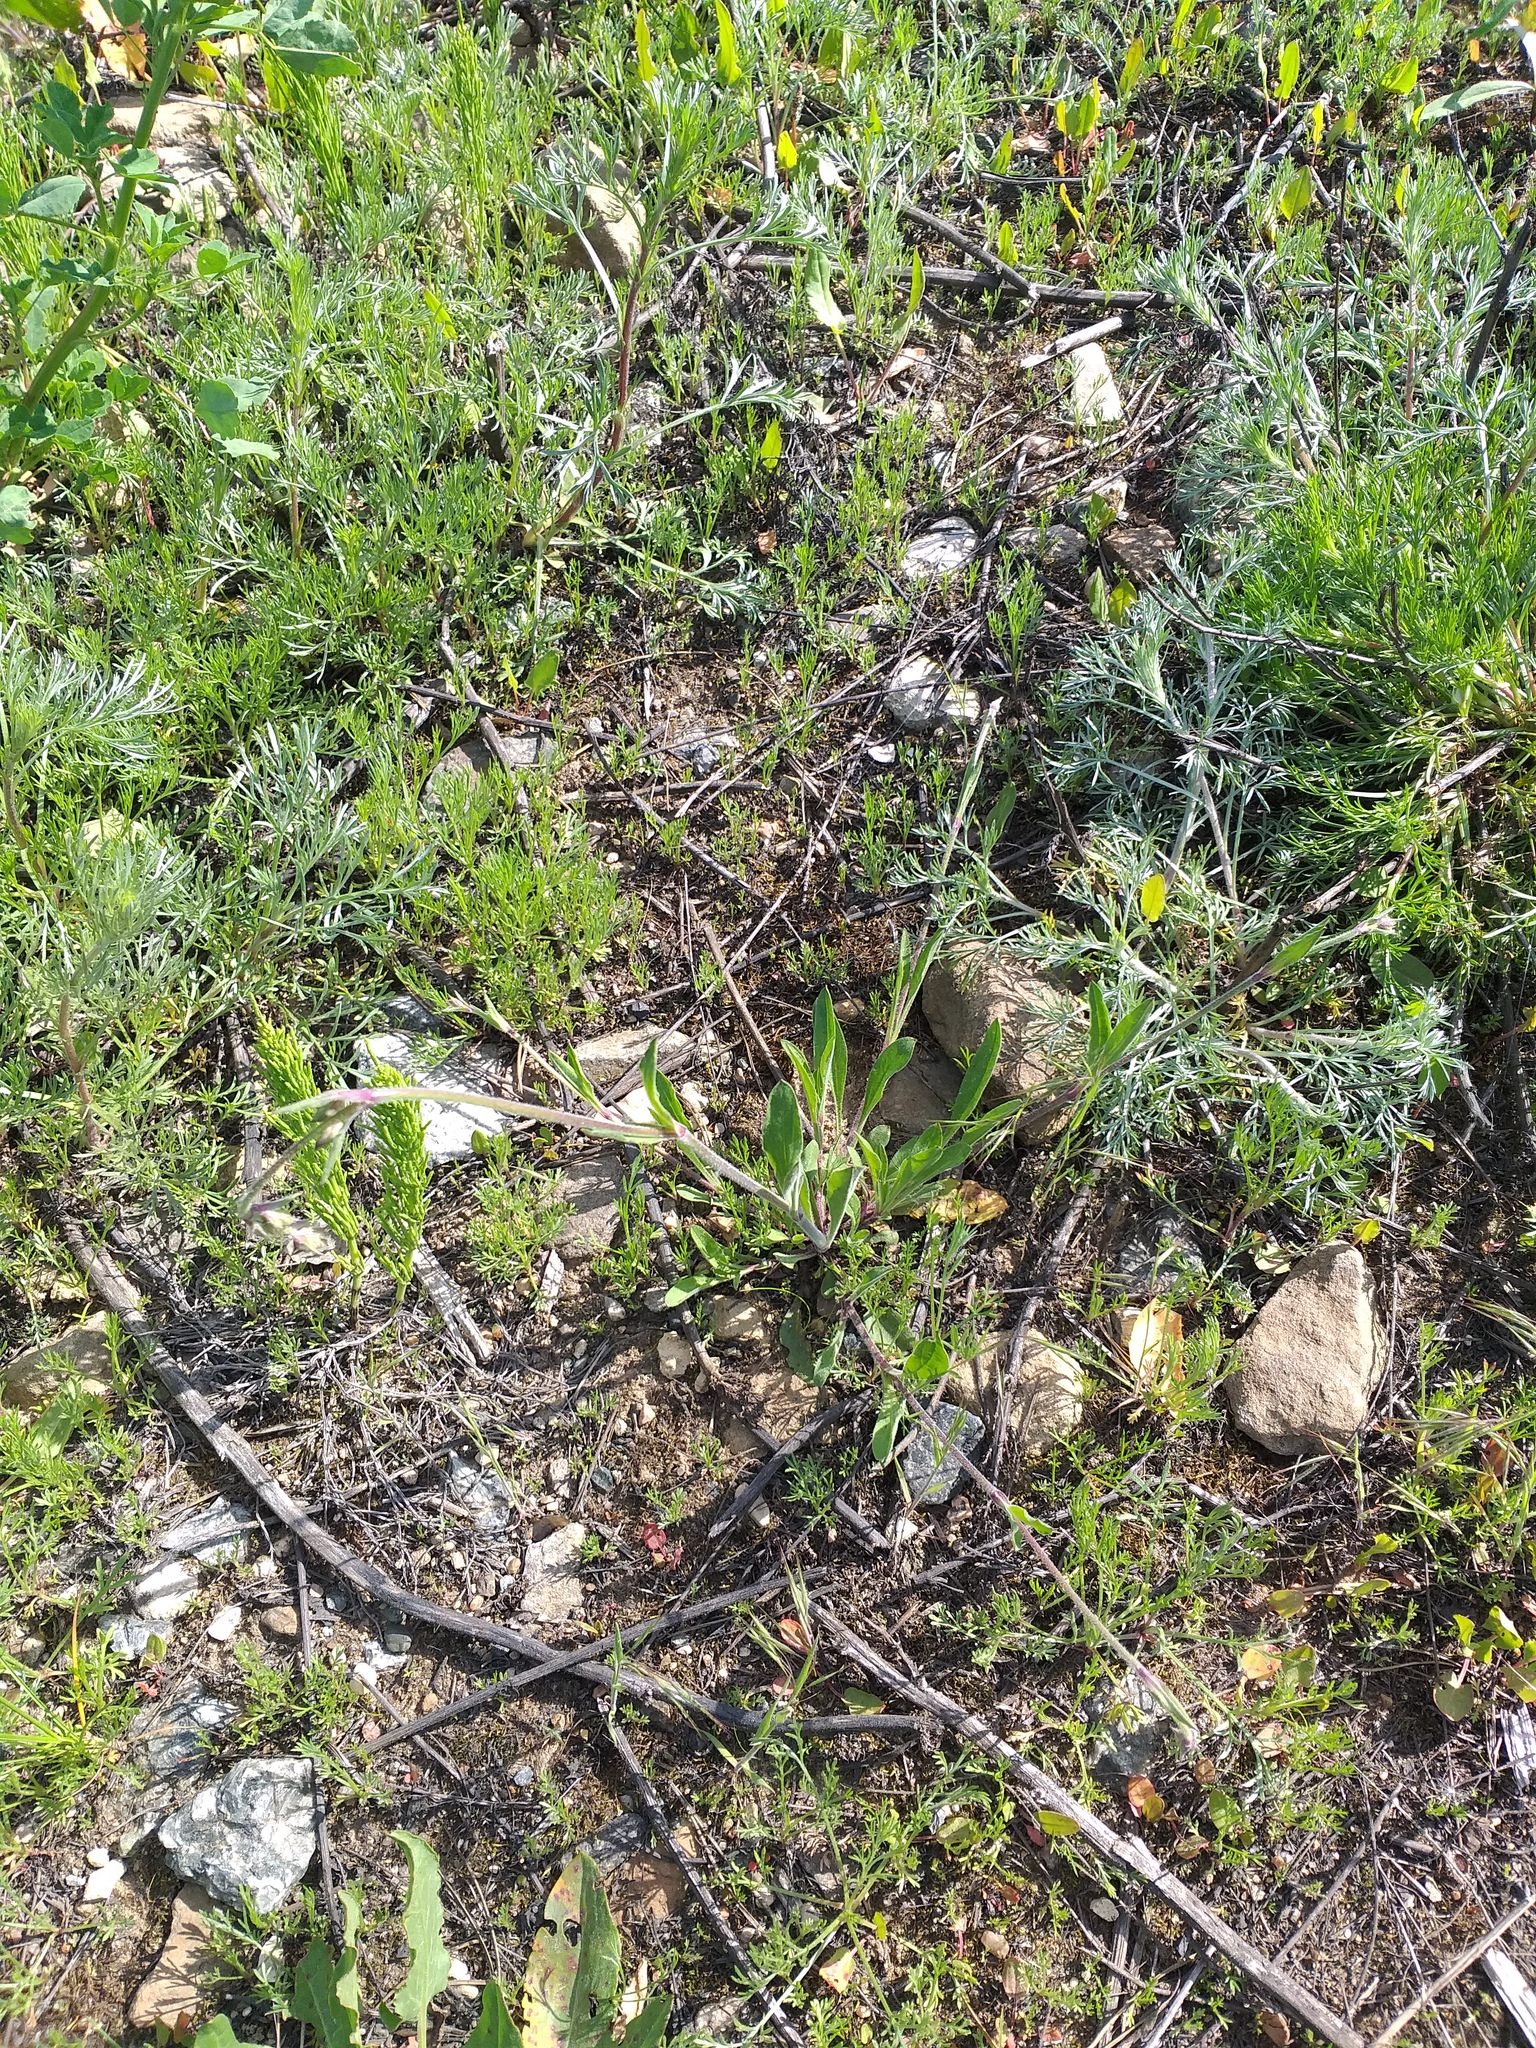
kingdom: Plantae
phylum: Tracheophyta
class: Magnoliopsida
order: Caryophyllales
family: Caryophyllaceae
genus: Silene
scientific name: Silene nutans
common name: Nottingham catchfly
